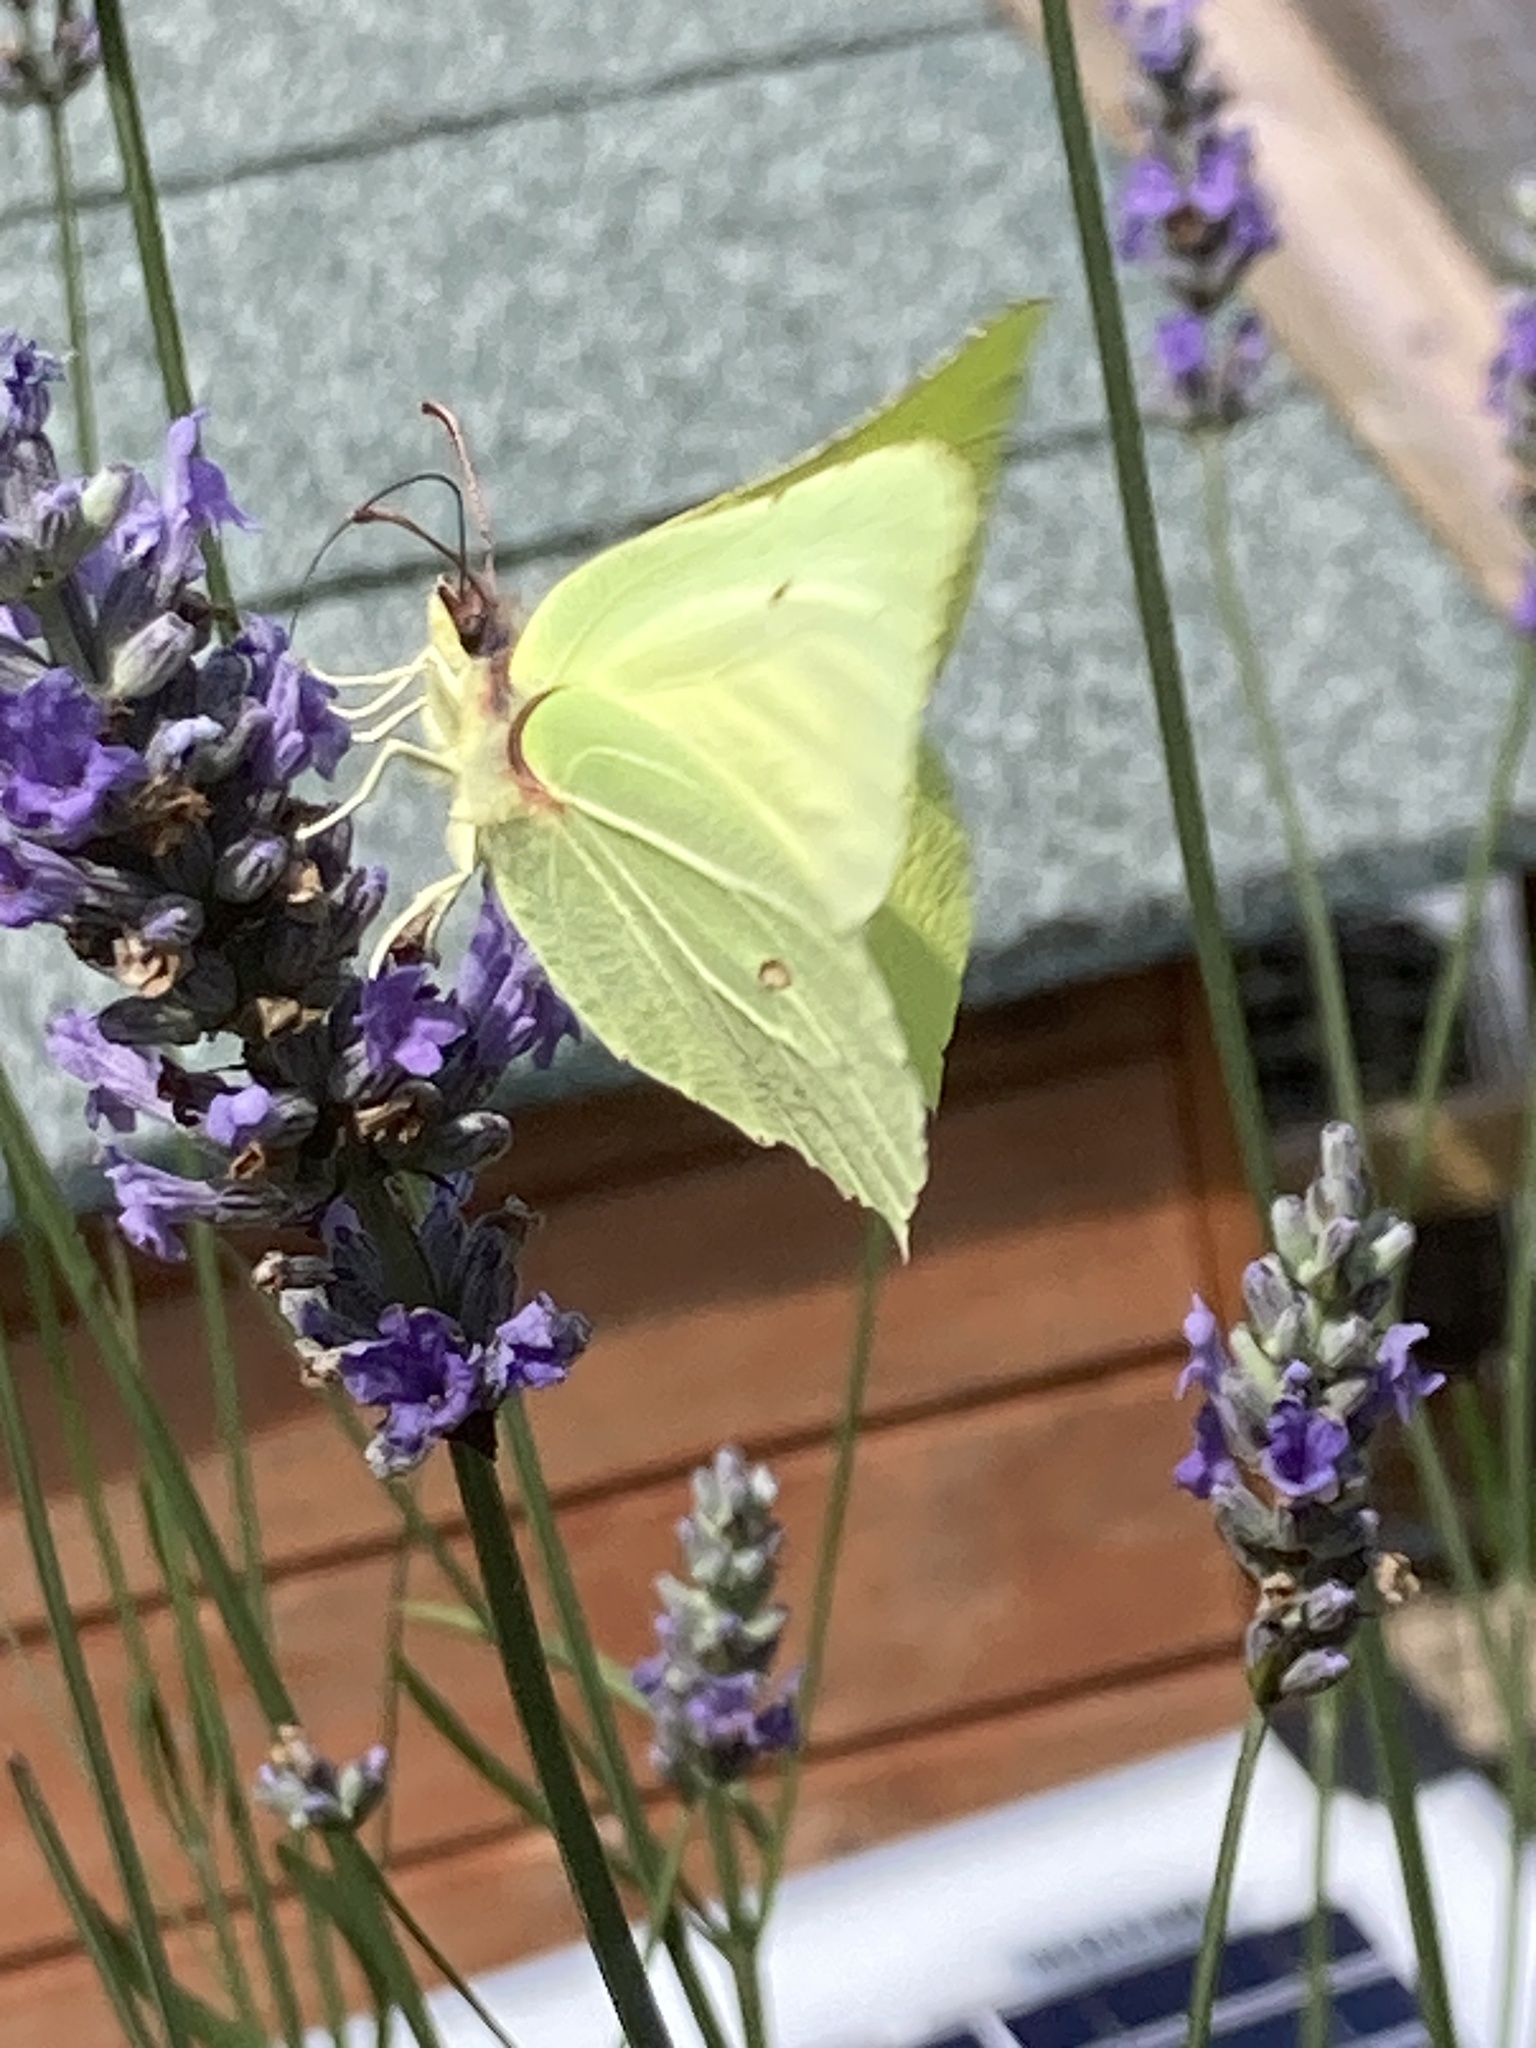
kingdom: Animalia
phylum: Arthropoda
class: Insecta
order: Lepidoptera
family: Pieridae
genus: Gonepteryx
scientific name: Gonepteryx rhamni
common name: Brimstone
